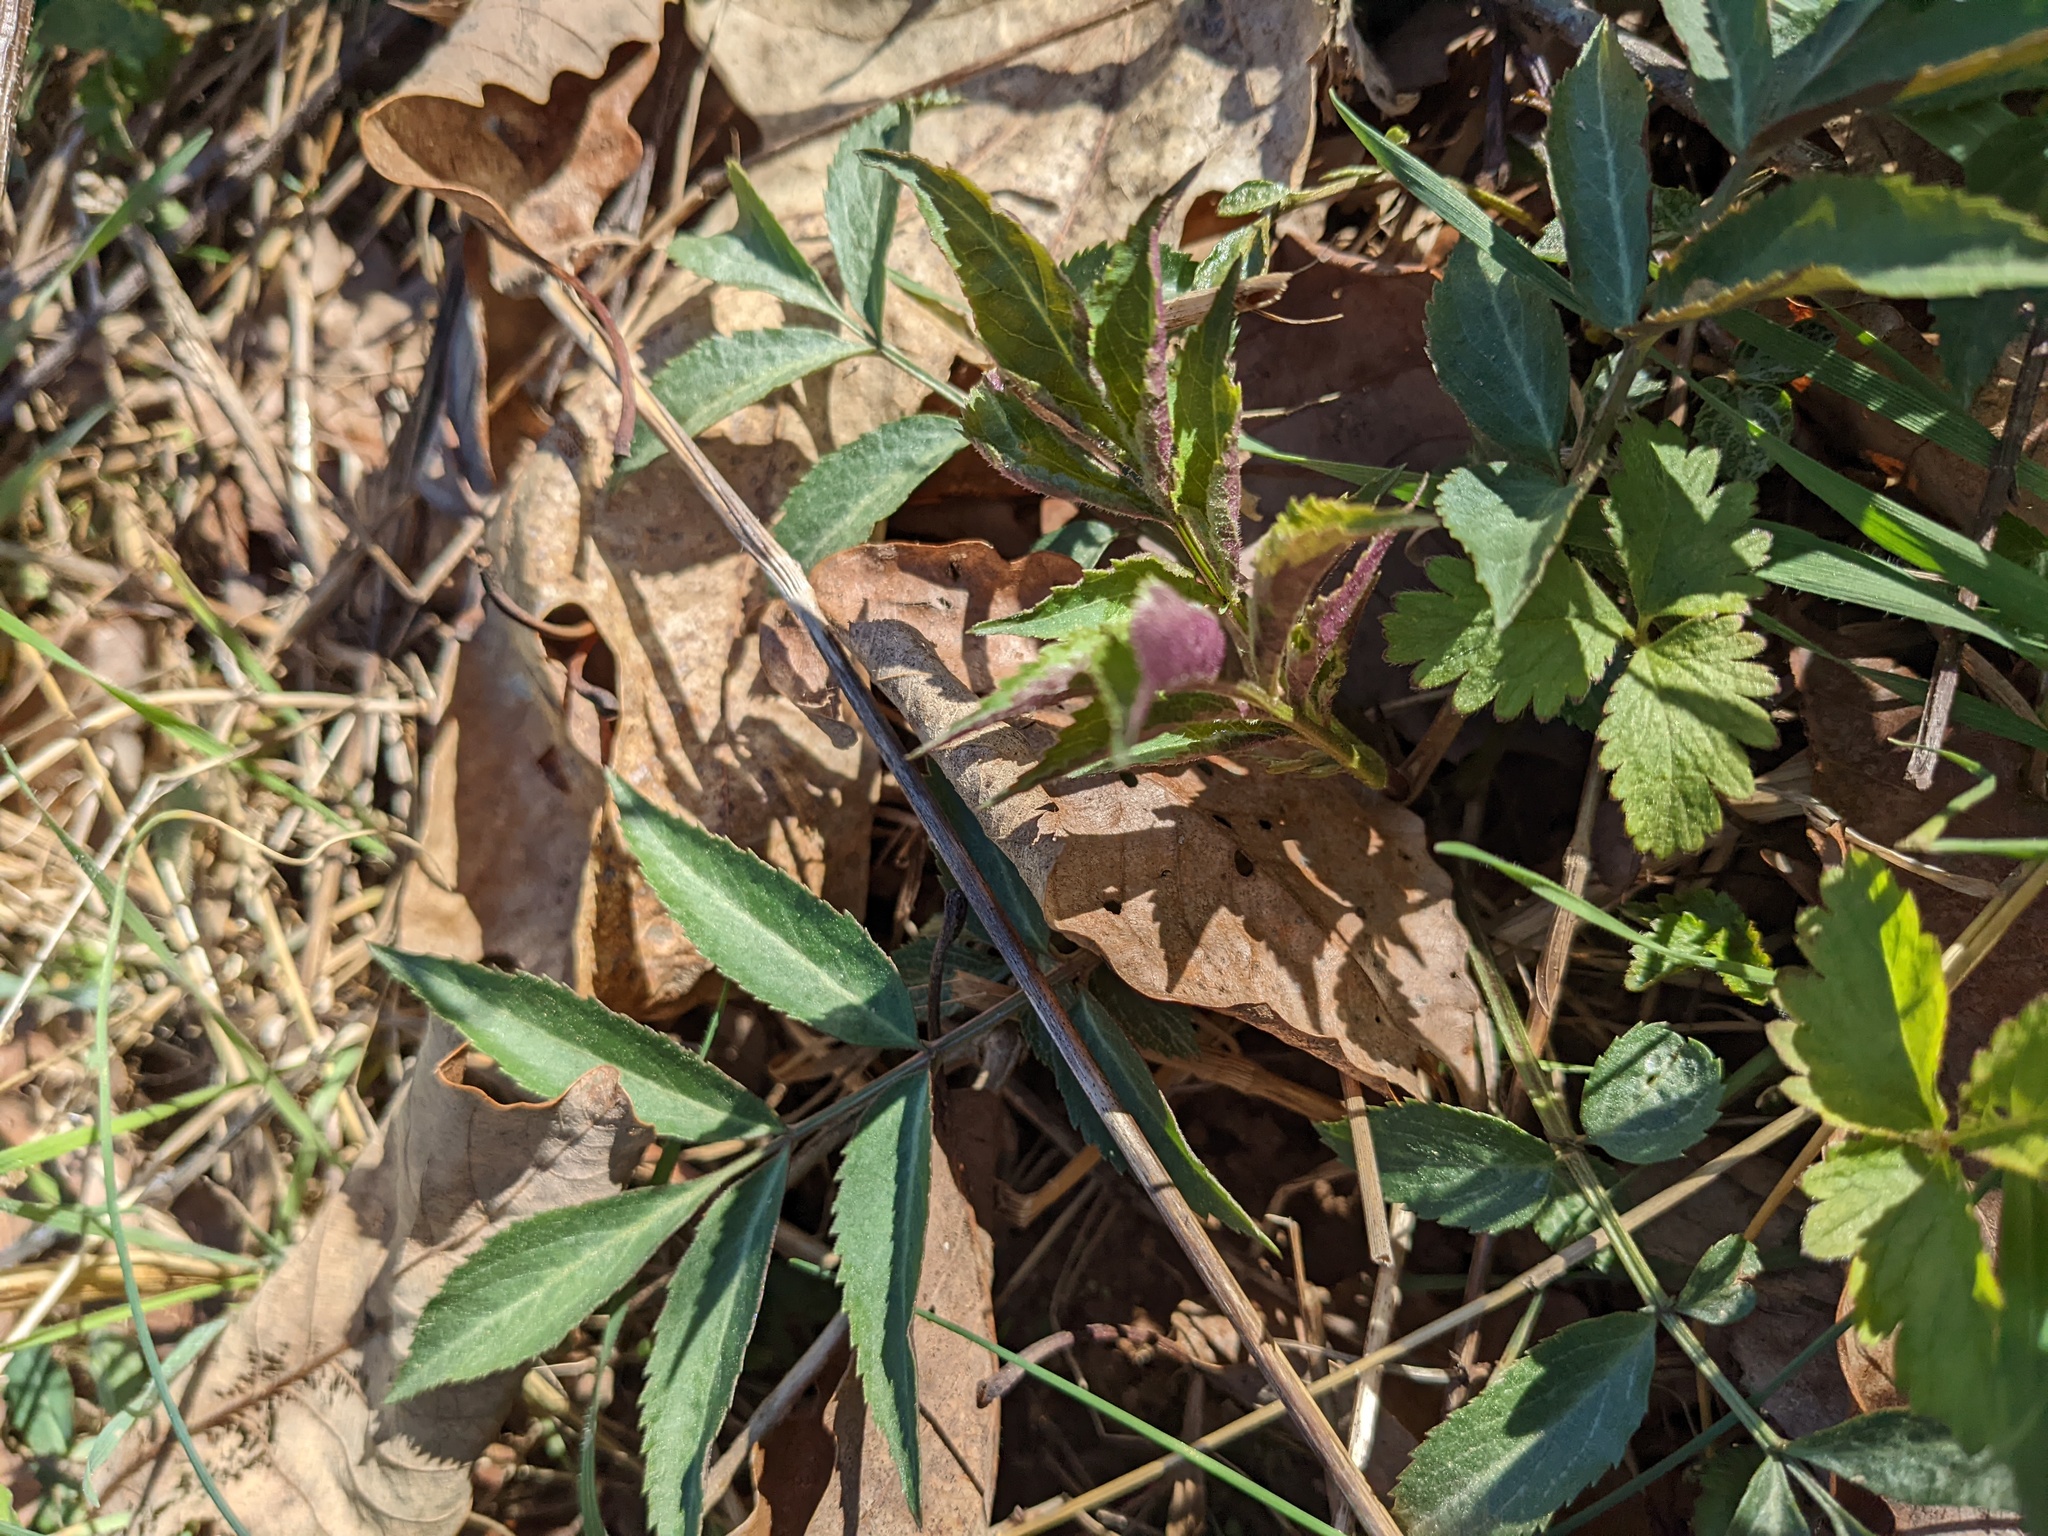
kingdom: Plantae
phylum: Tracheophyta
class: Magnoliopsida
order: Dipsacales
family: Viburnaceae
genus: Sambucus
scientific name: Sambucus canadensis
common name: American elder
